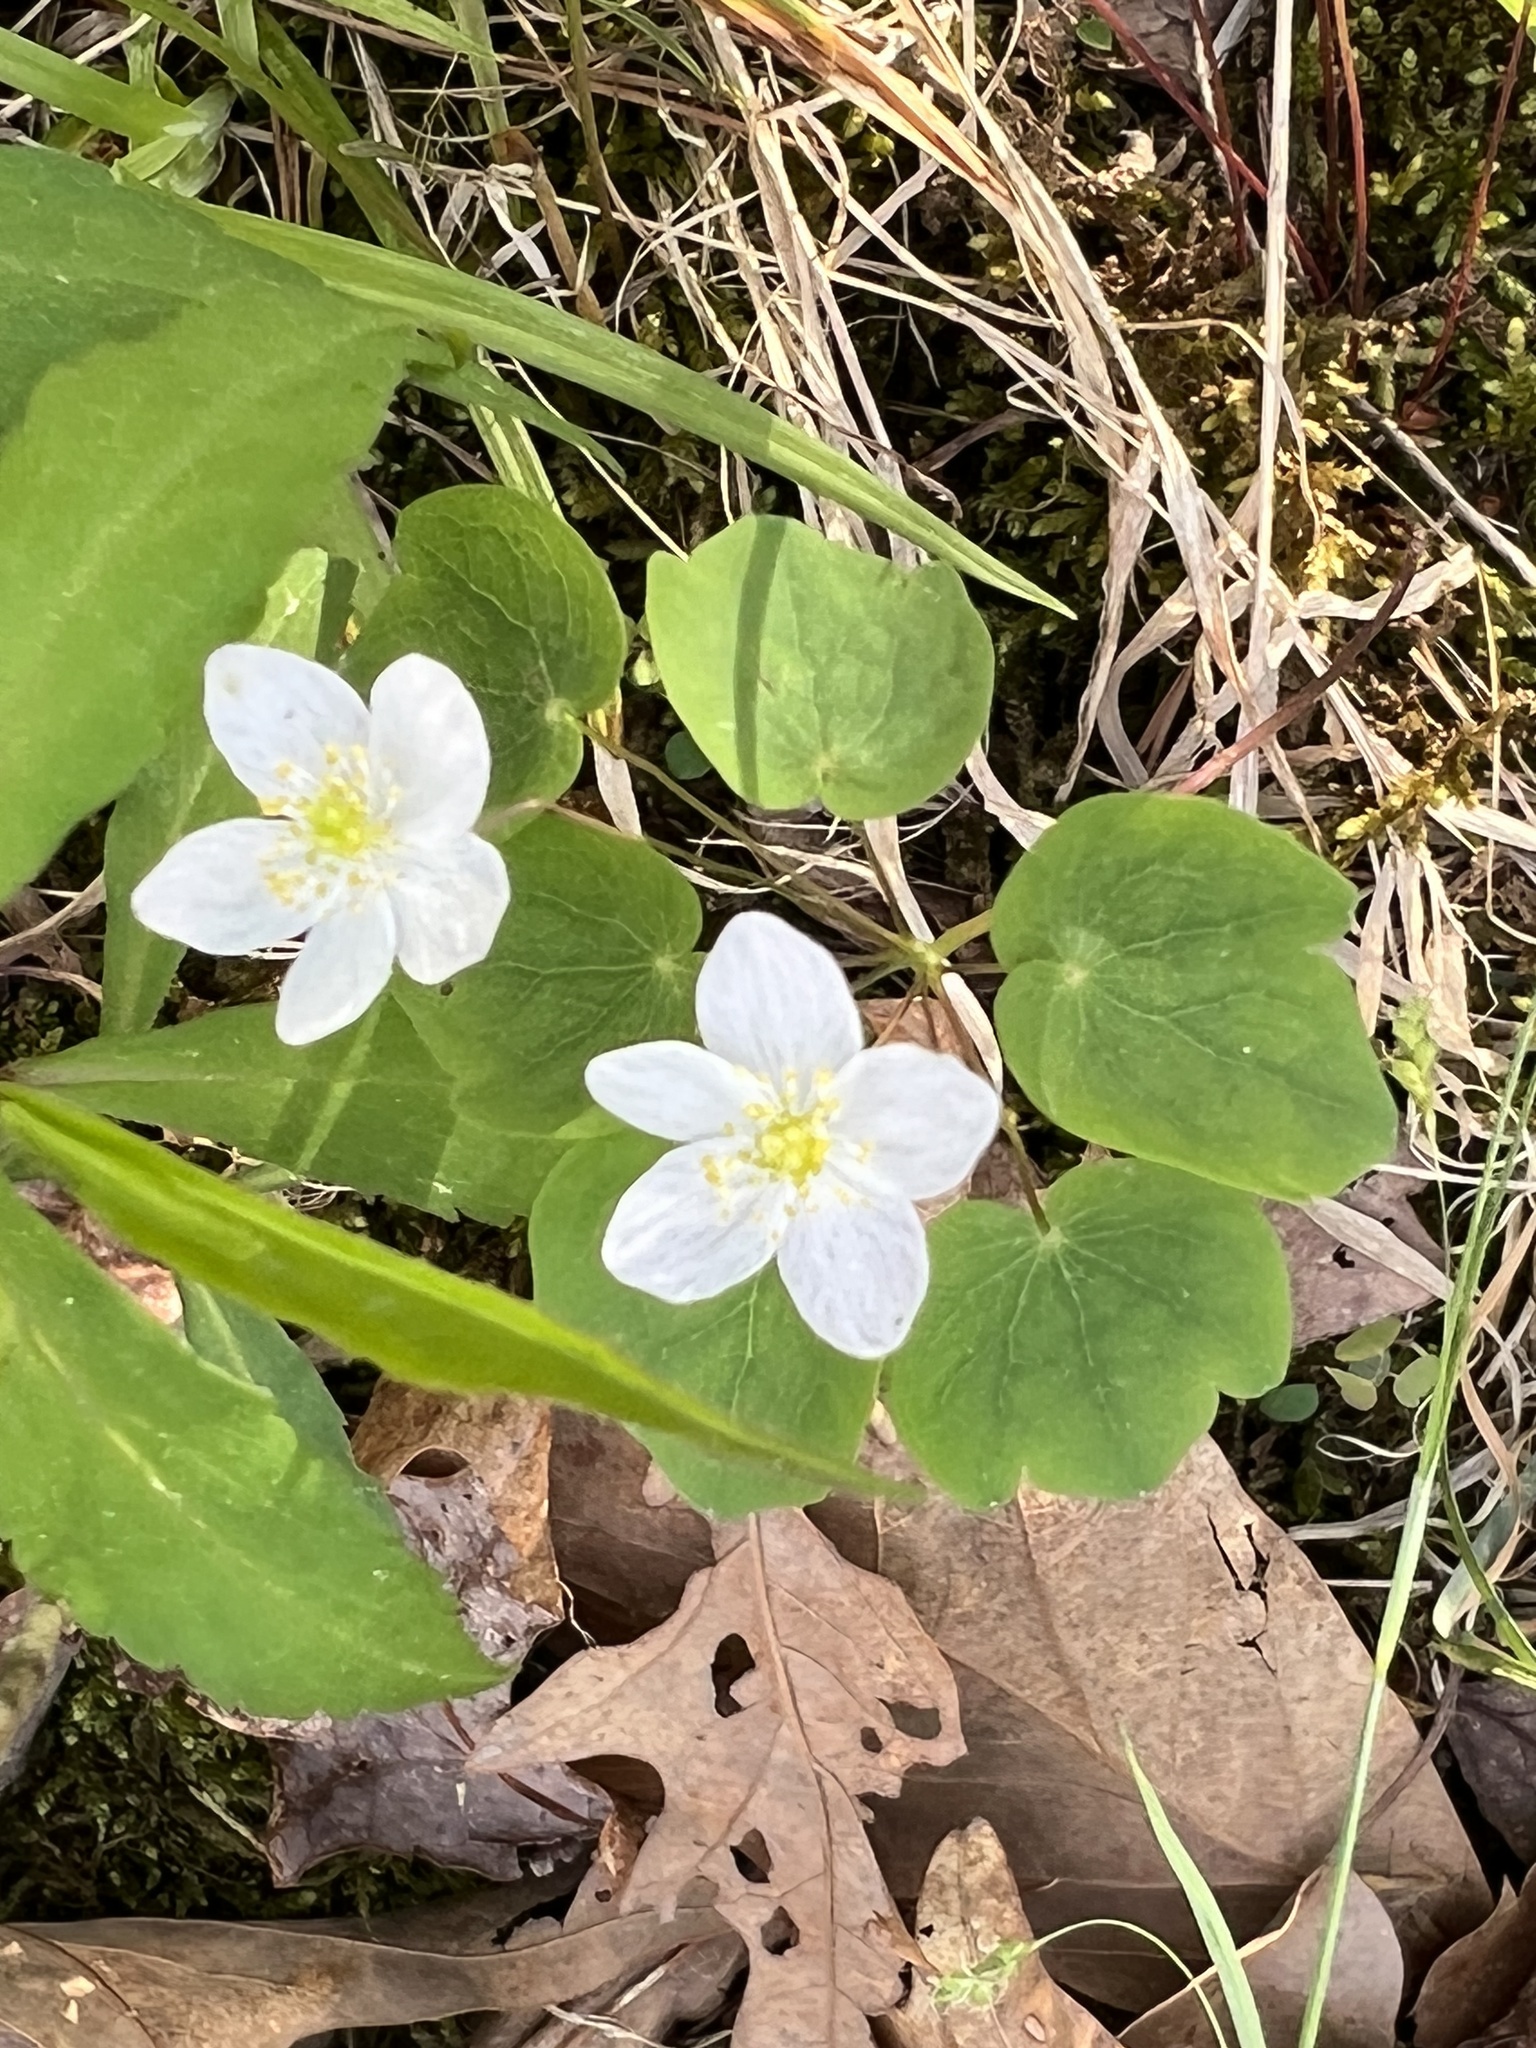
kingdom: Plantae
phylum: Tracheophyta
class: Magnoliopsida
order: Ranunculales
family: Ranunculaceae
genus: Thalictrum
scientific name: Thalictrum thalictroides
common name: Rue-anemone
